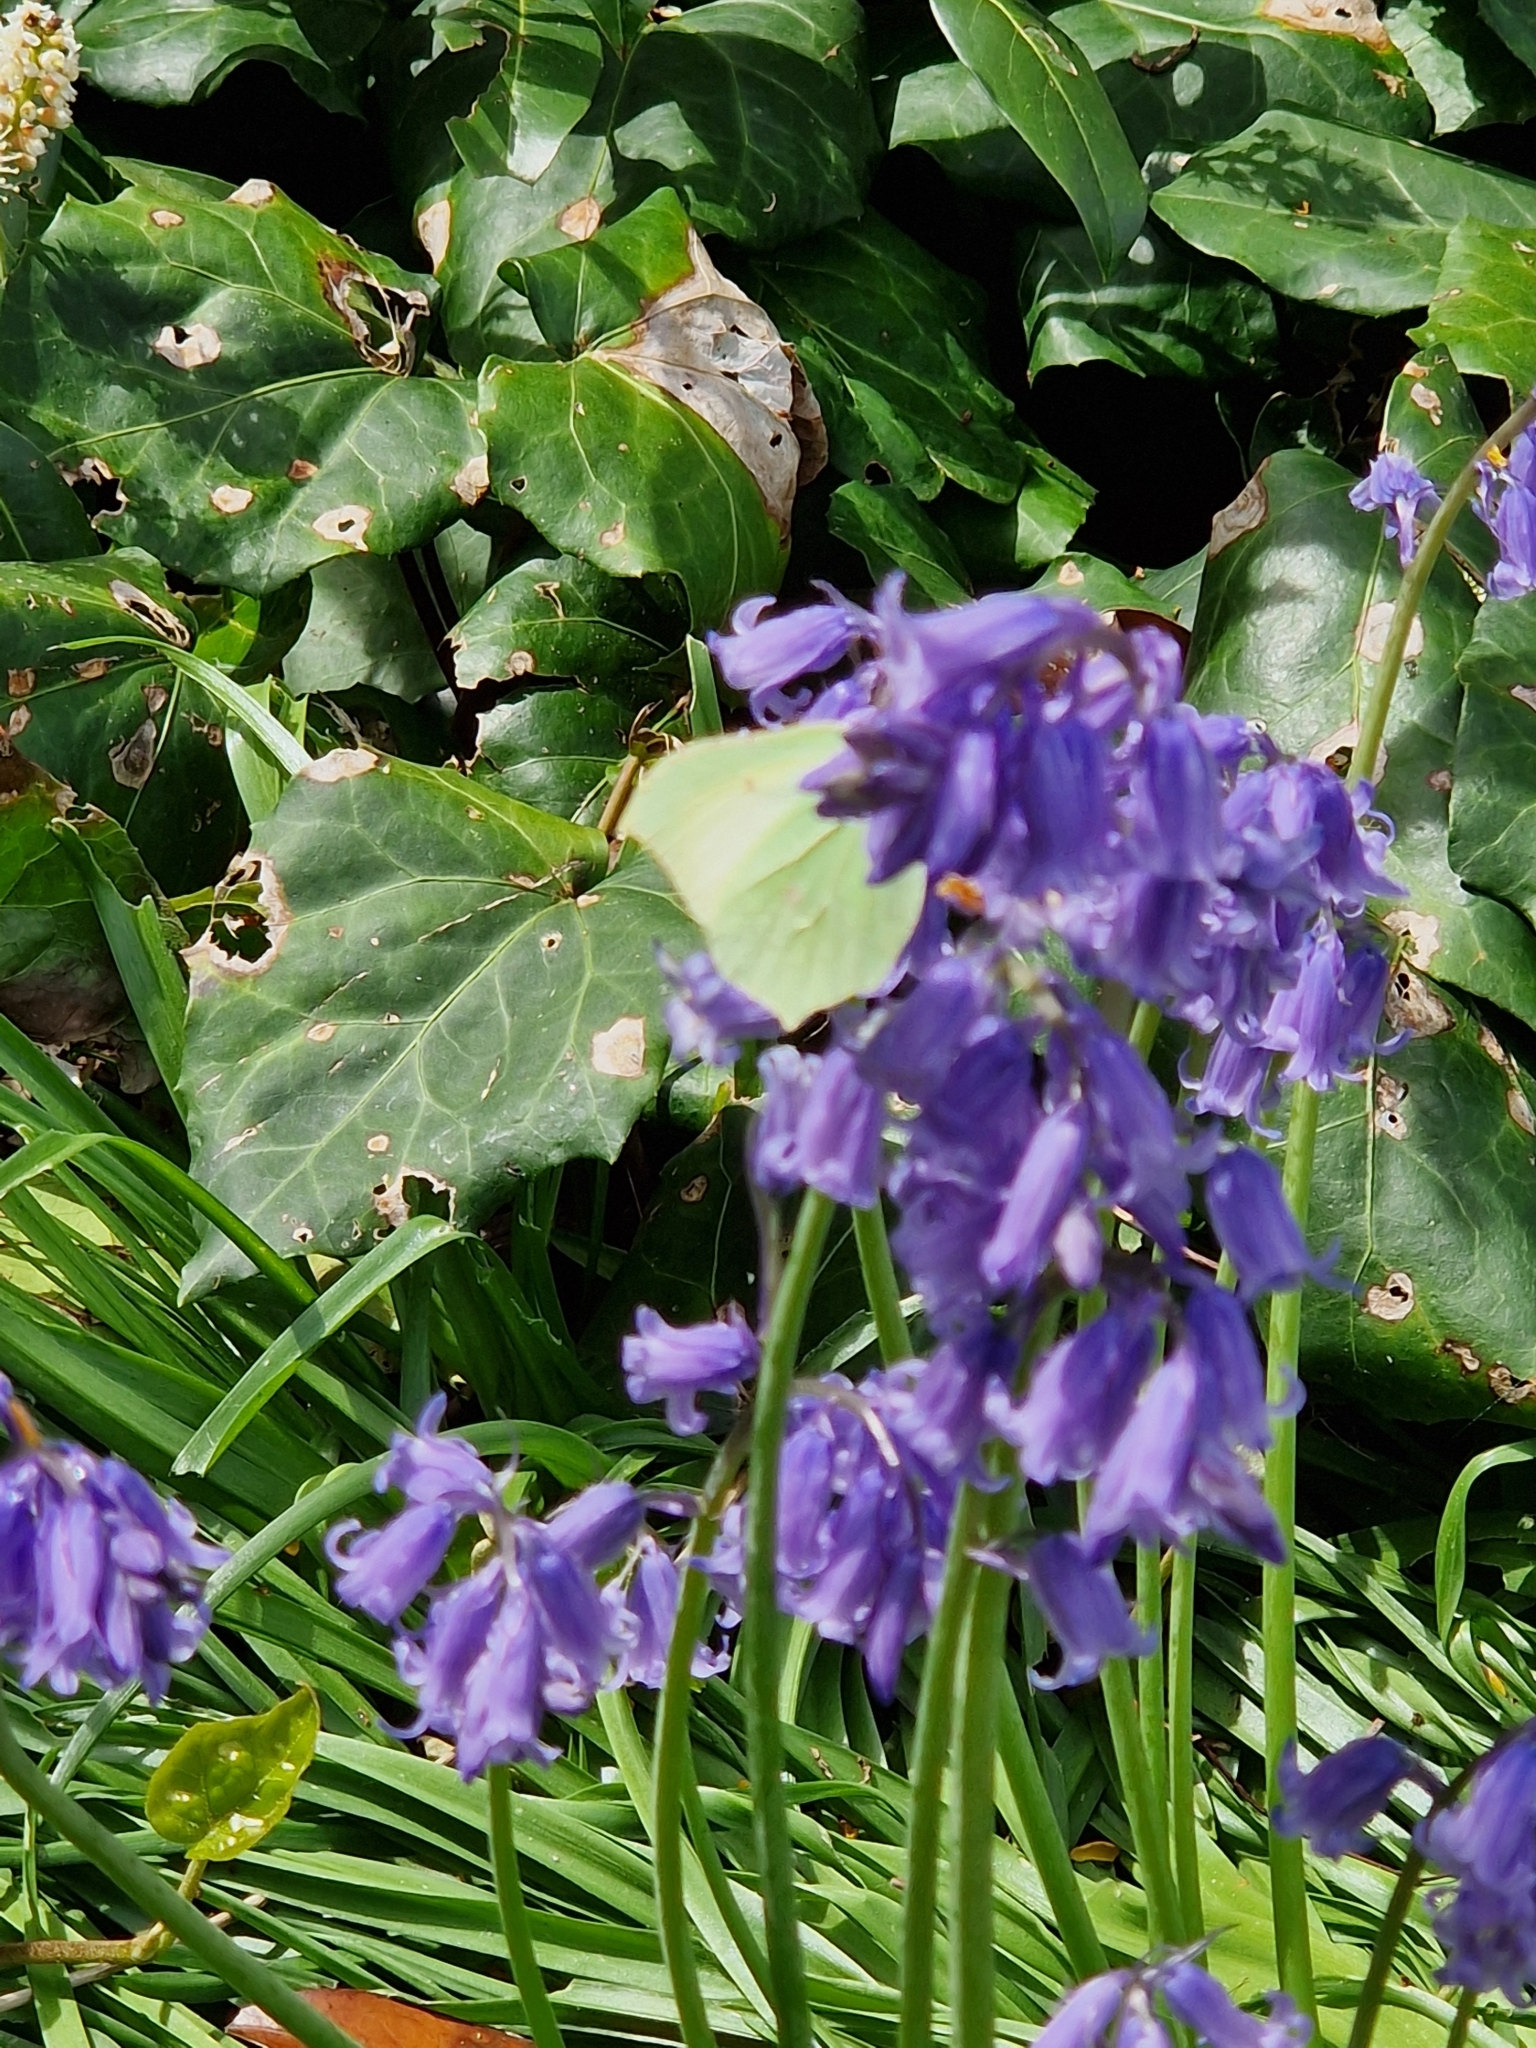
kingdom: Animalia
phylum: Arthropoda
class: Insecta
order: Lepidoptera
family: Pieridae
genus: Gonepteryx
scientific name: Gonepteryx rhamni
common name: Brimstone
